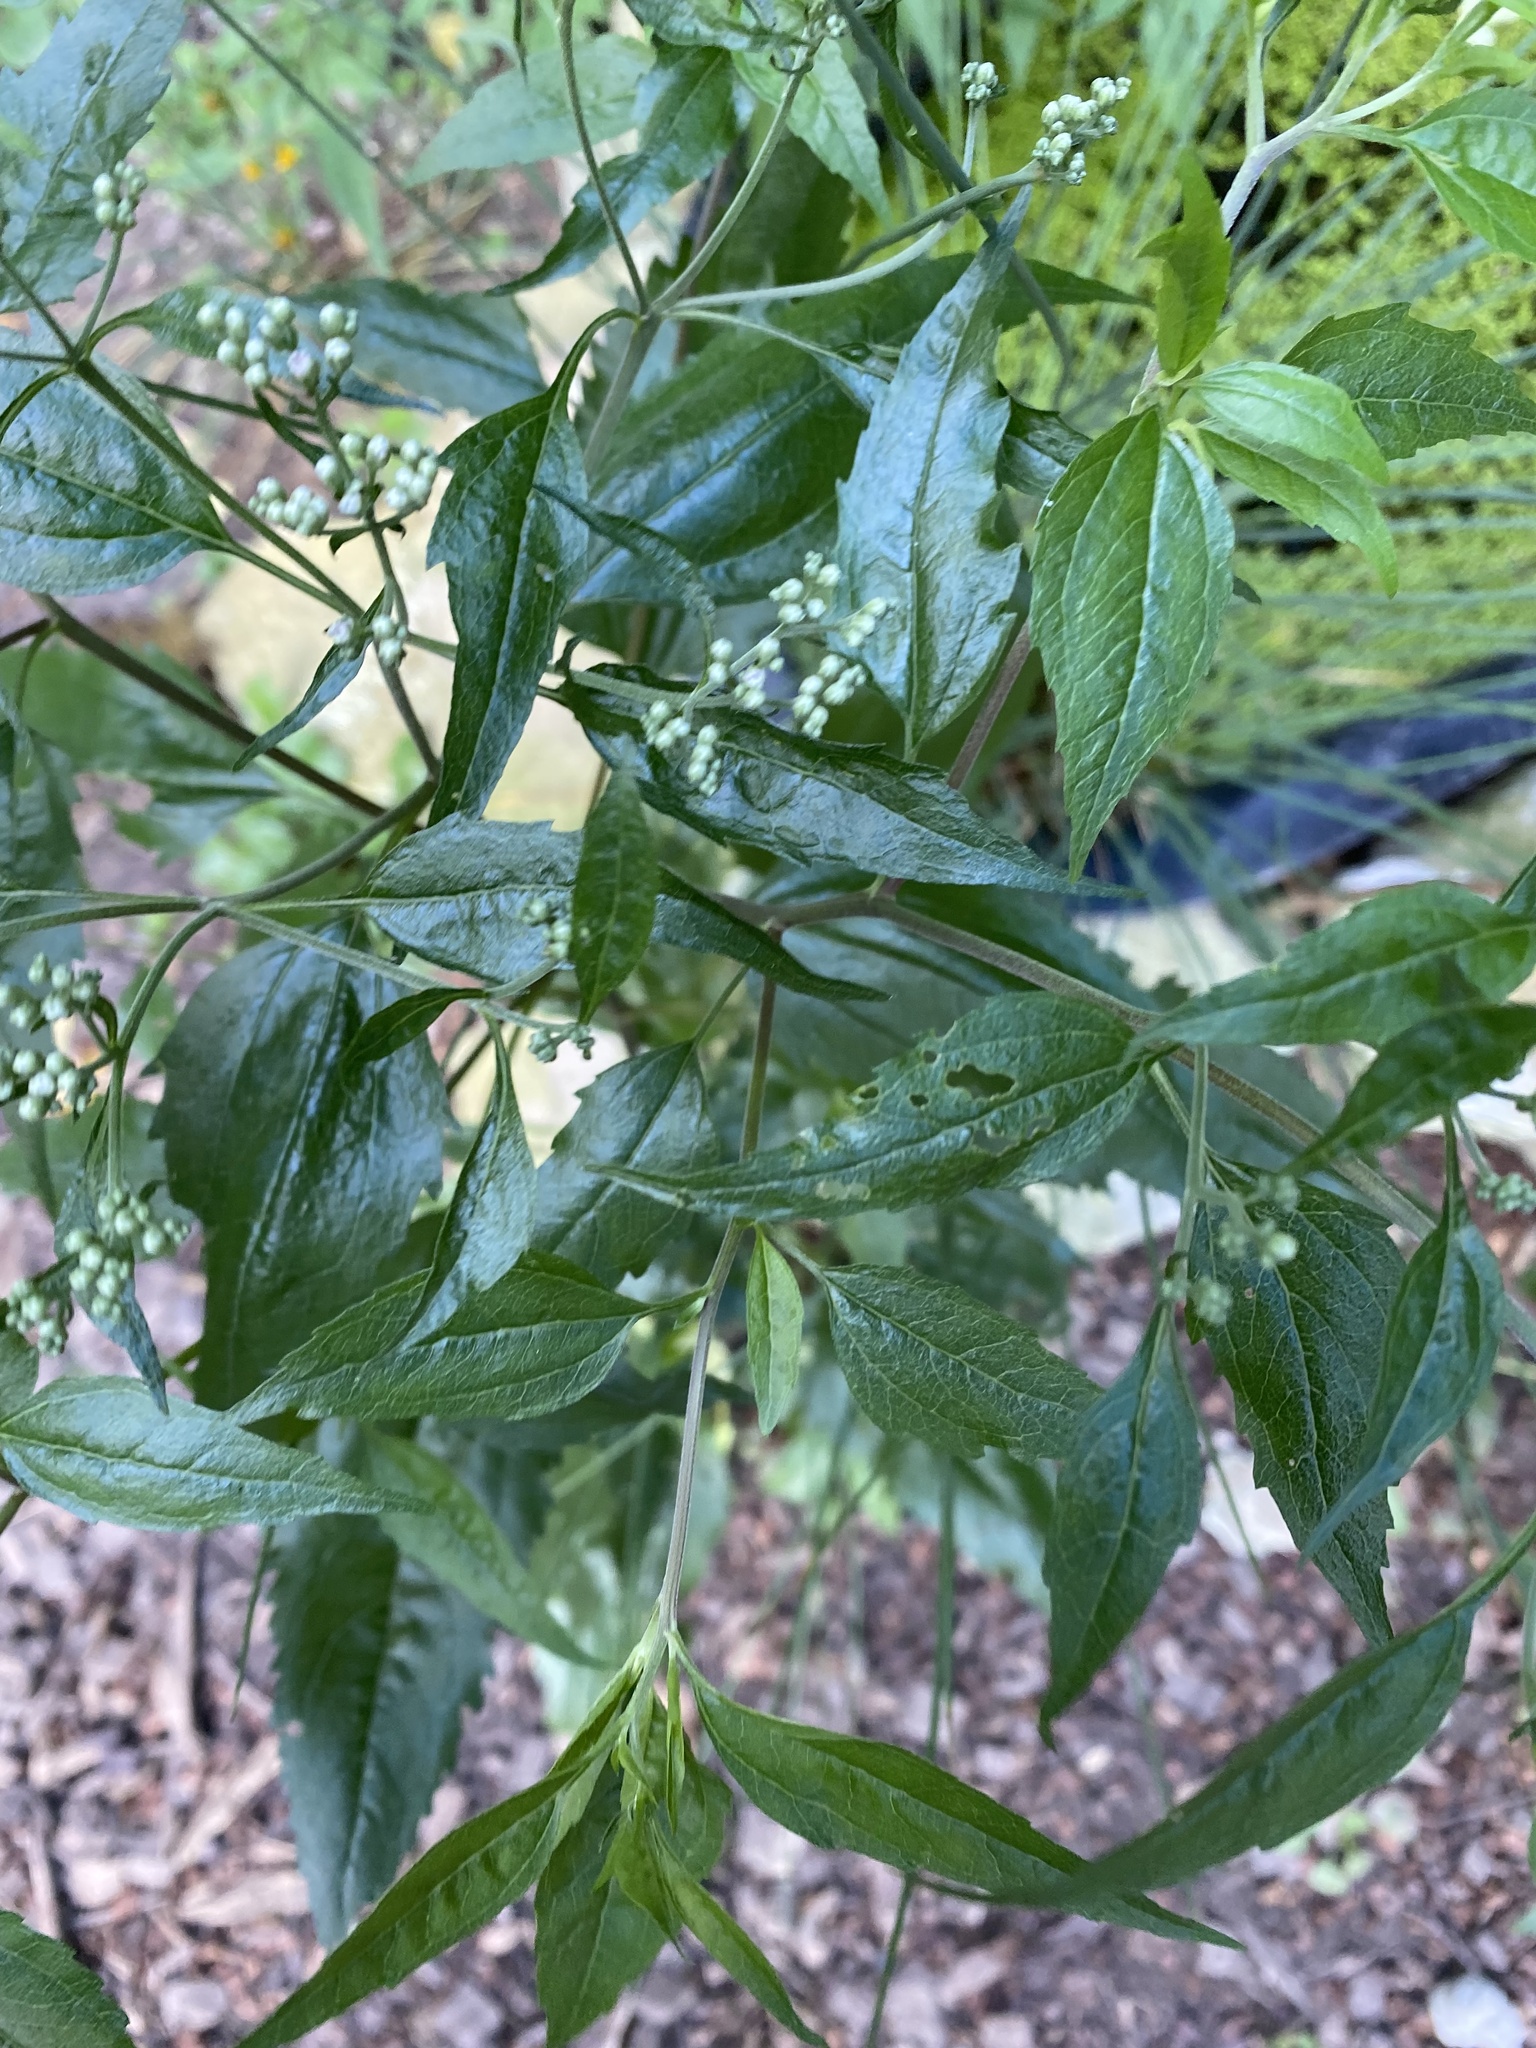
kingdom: Plantae
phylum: Tracheophyta
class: Magnoliopsida
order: Asterales
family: Asteraceae
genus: Eupatorium
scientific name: Eupatorium serotinum
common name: Late boneset
